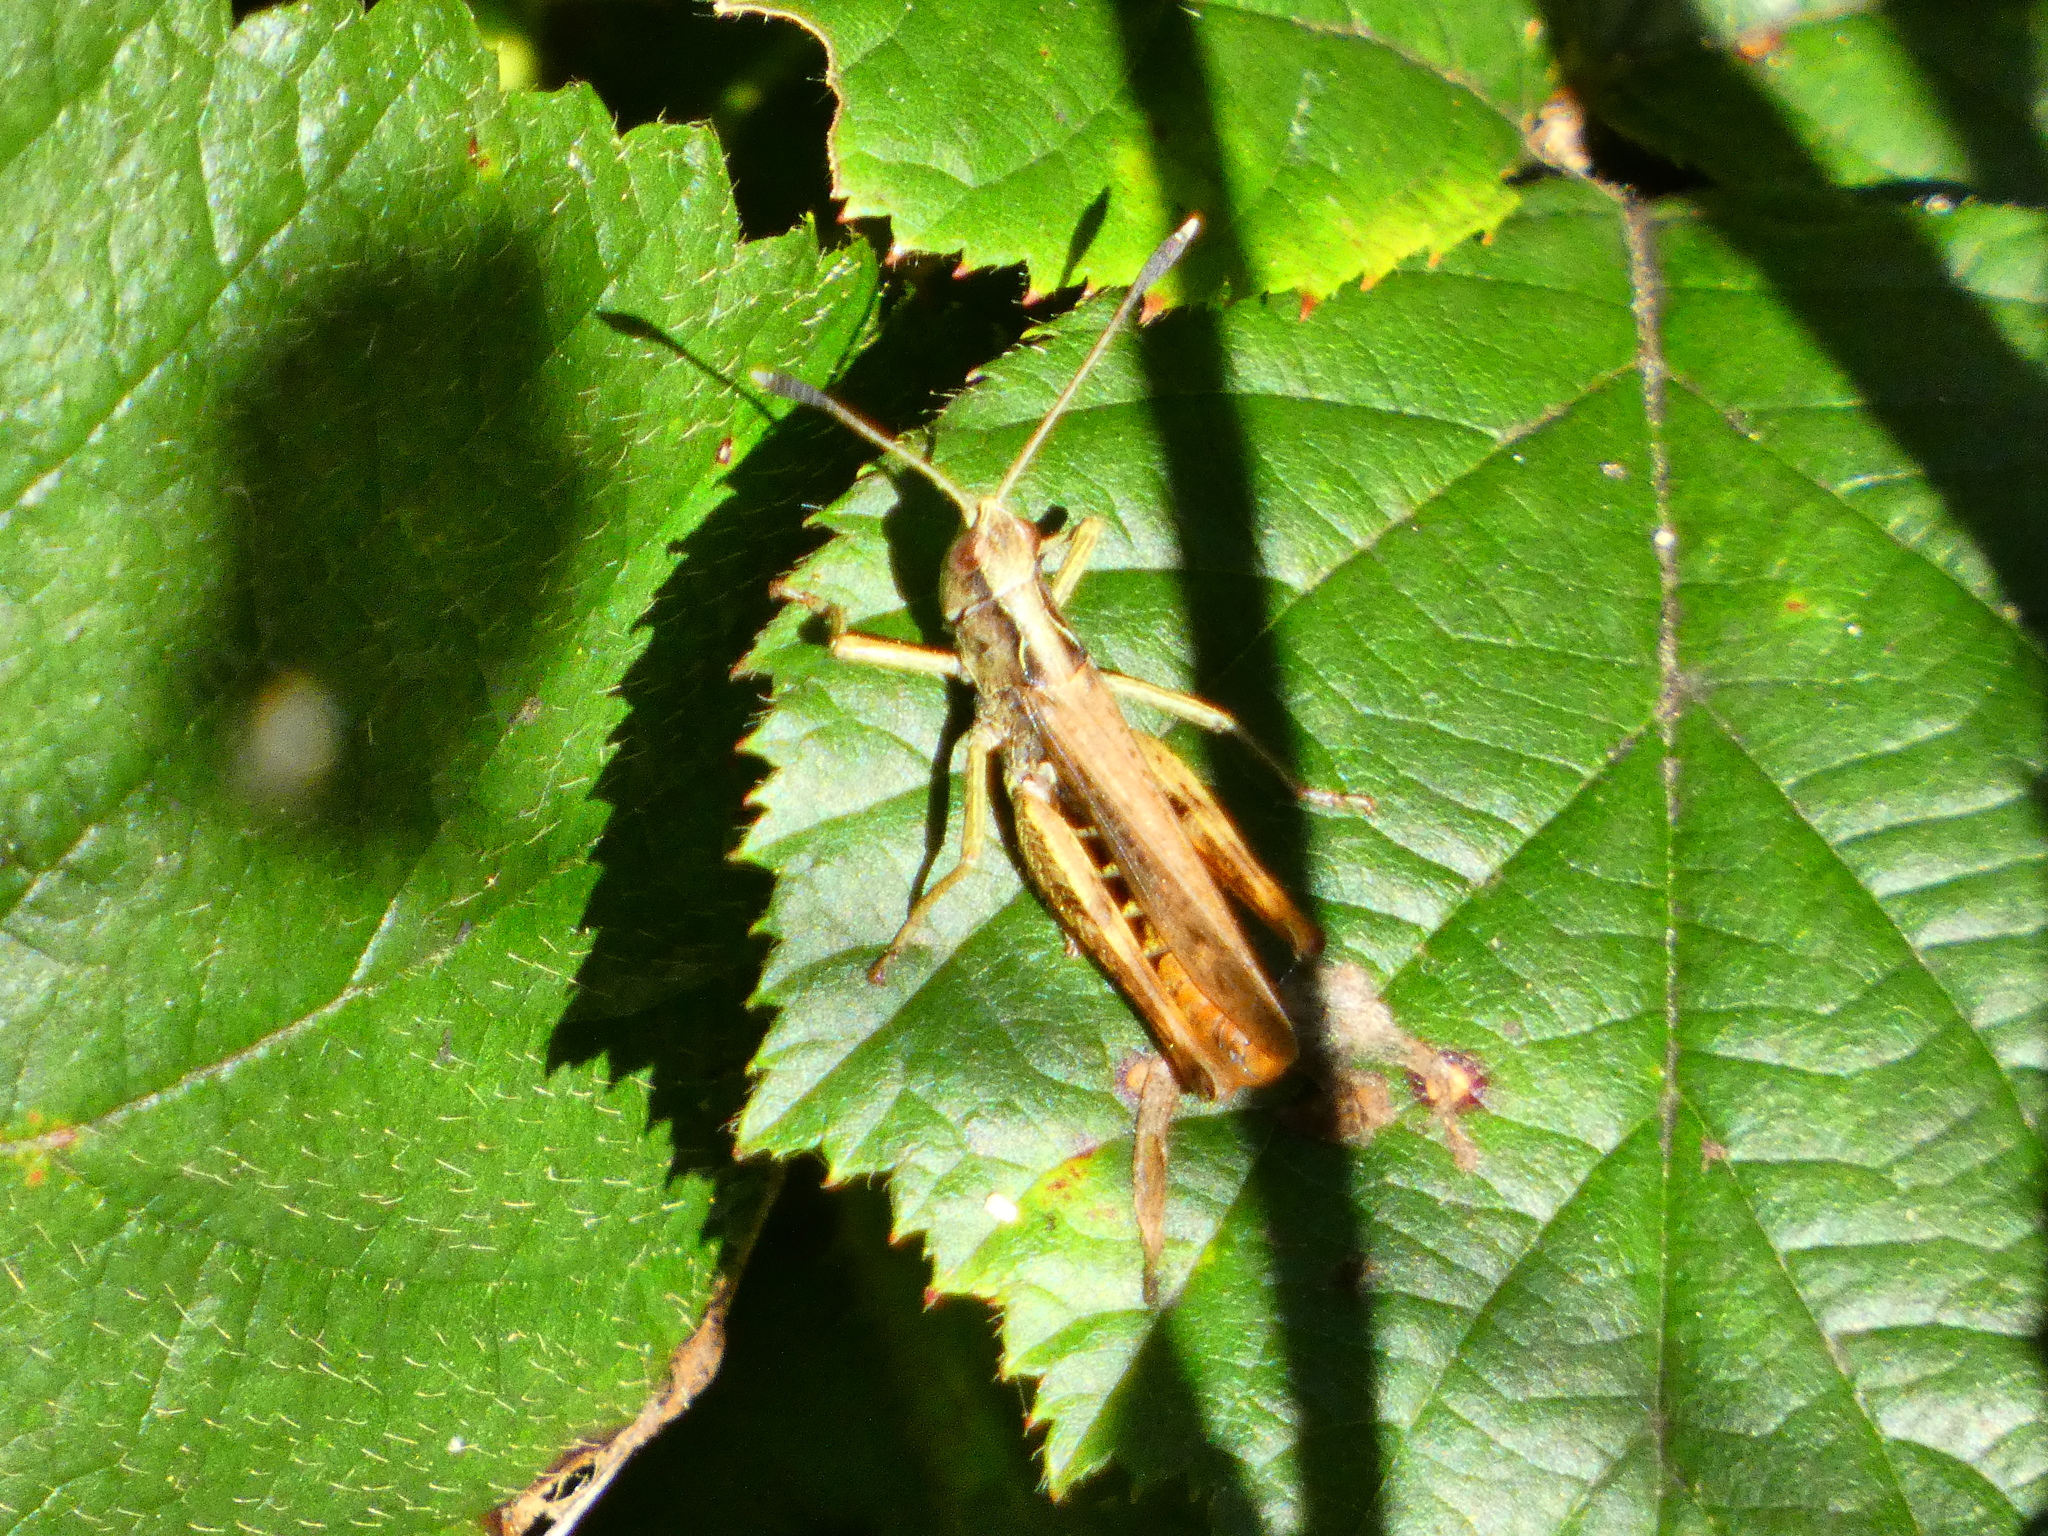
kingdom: Animalia
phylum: Arthropoda
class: Insecta
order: Orthoptera
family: Acrididae
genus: Gomphocerippus
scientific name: Gomphocerippus rufus
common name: Rufous grasshopper
